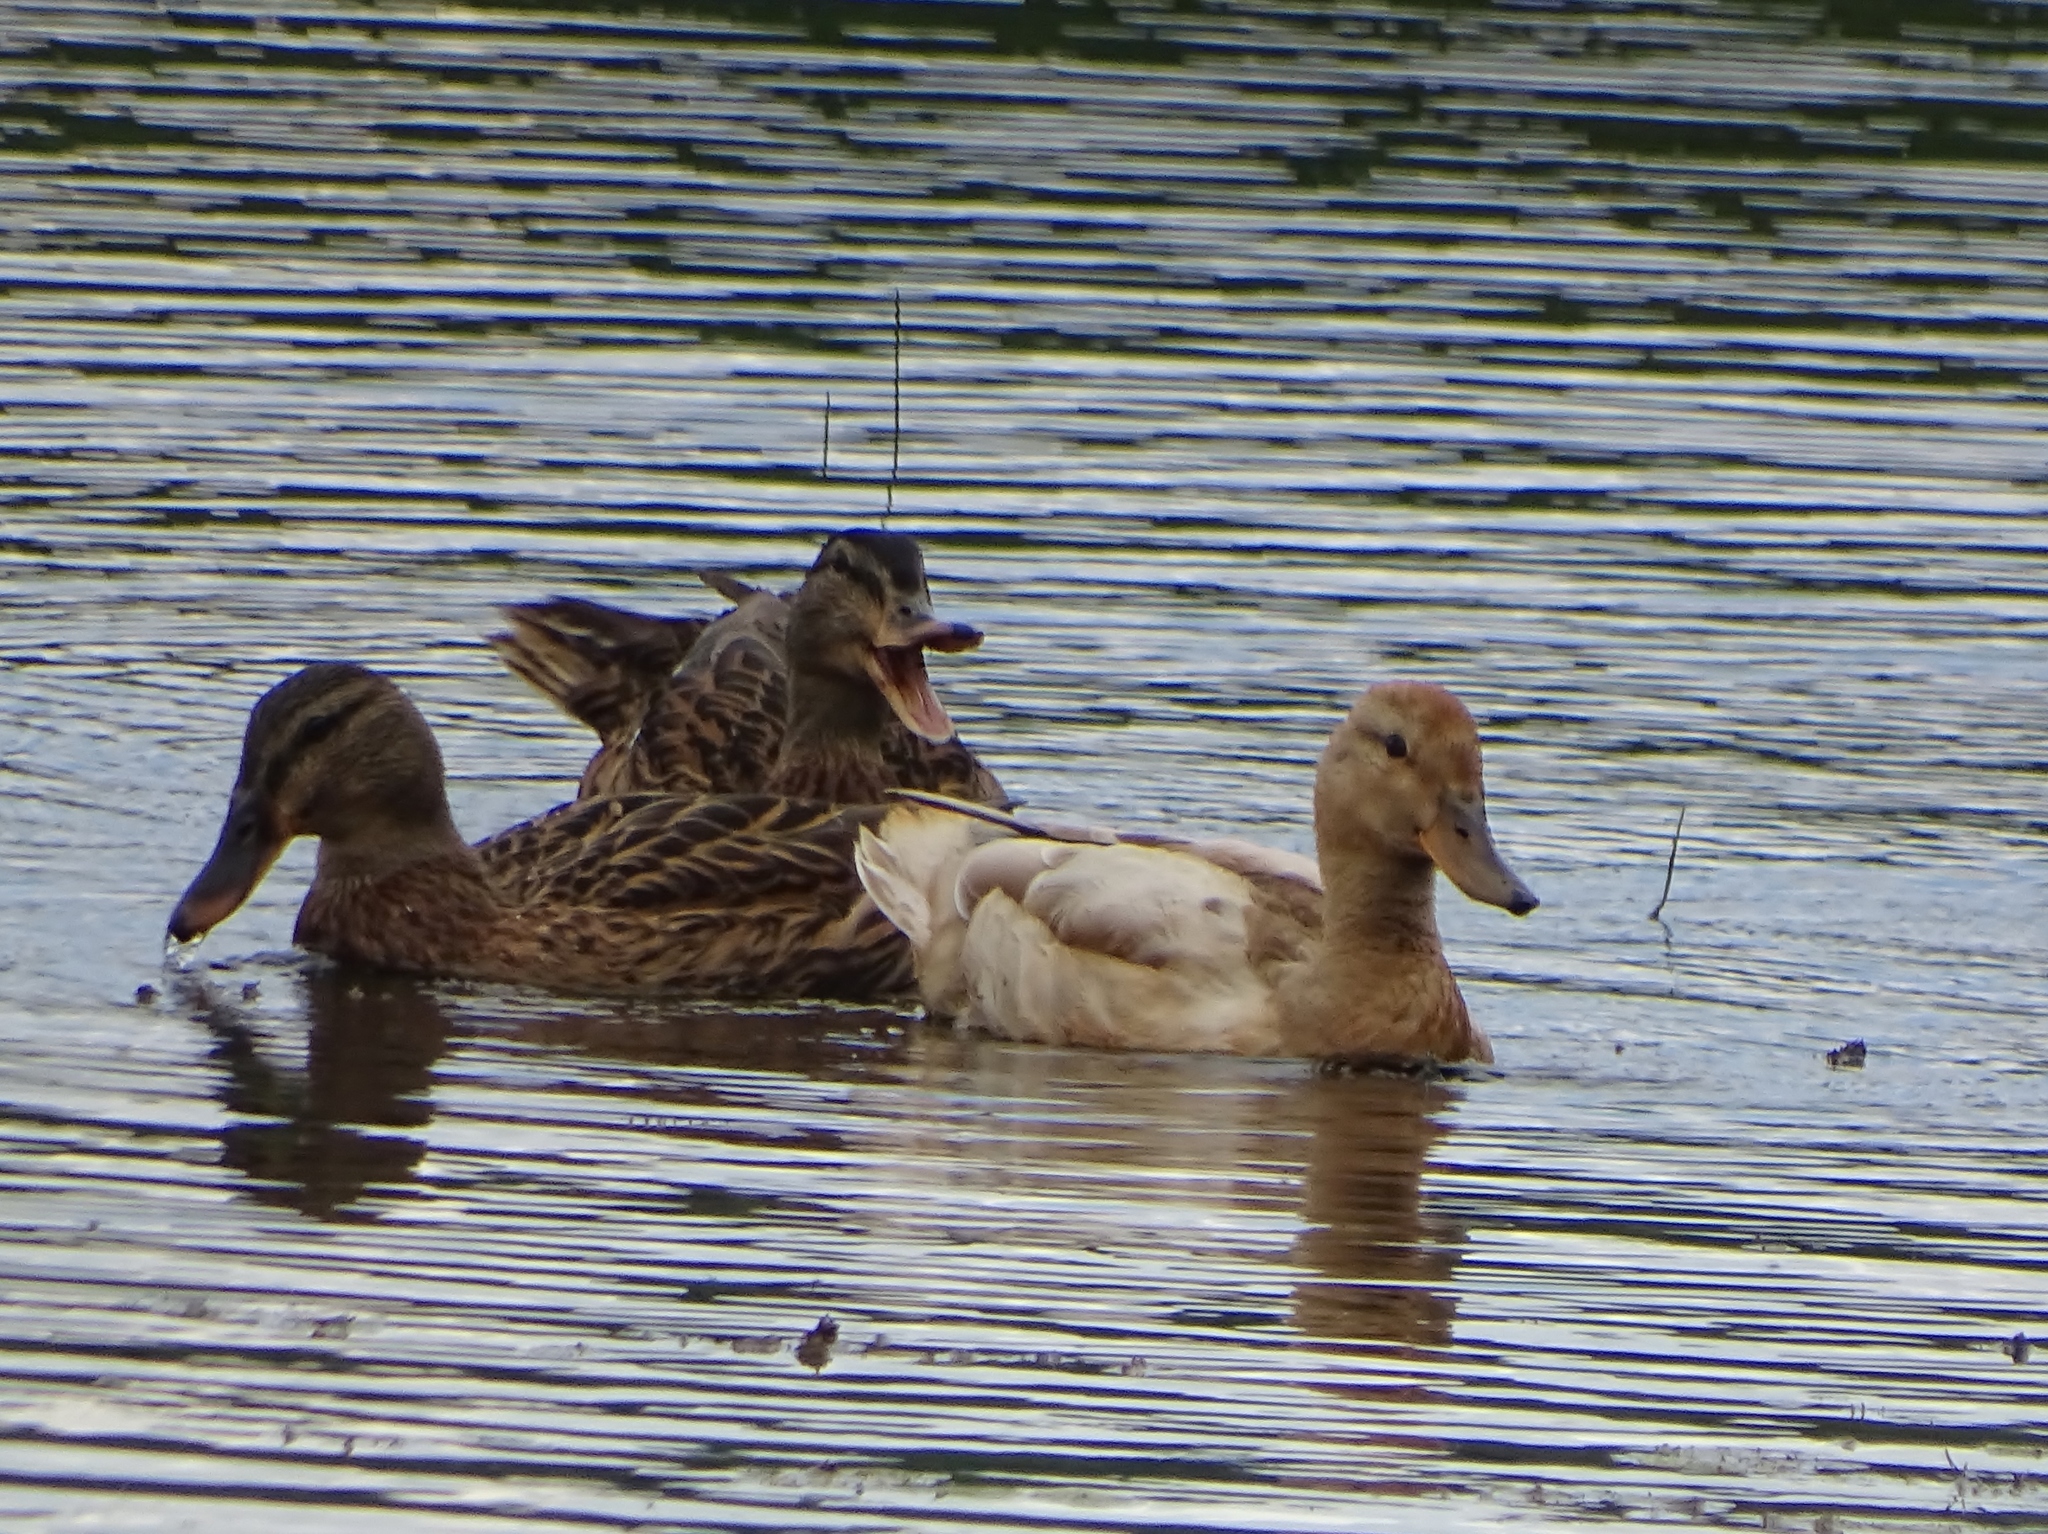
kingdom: Animalia
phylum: Chordata
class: Aves
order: Anseriformes
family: Anatidae
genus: Anas
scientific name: Anas platyrhynchos
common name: Mallard
